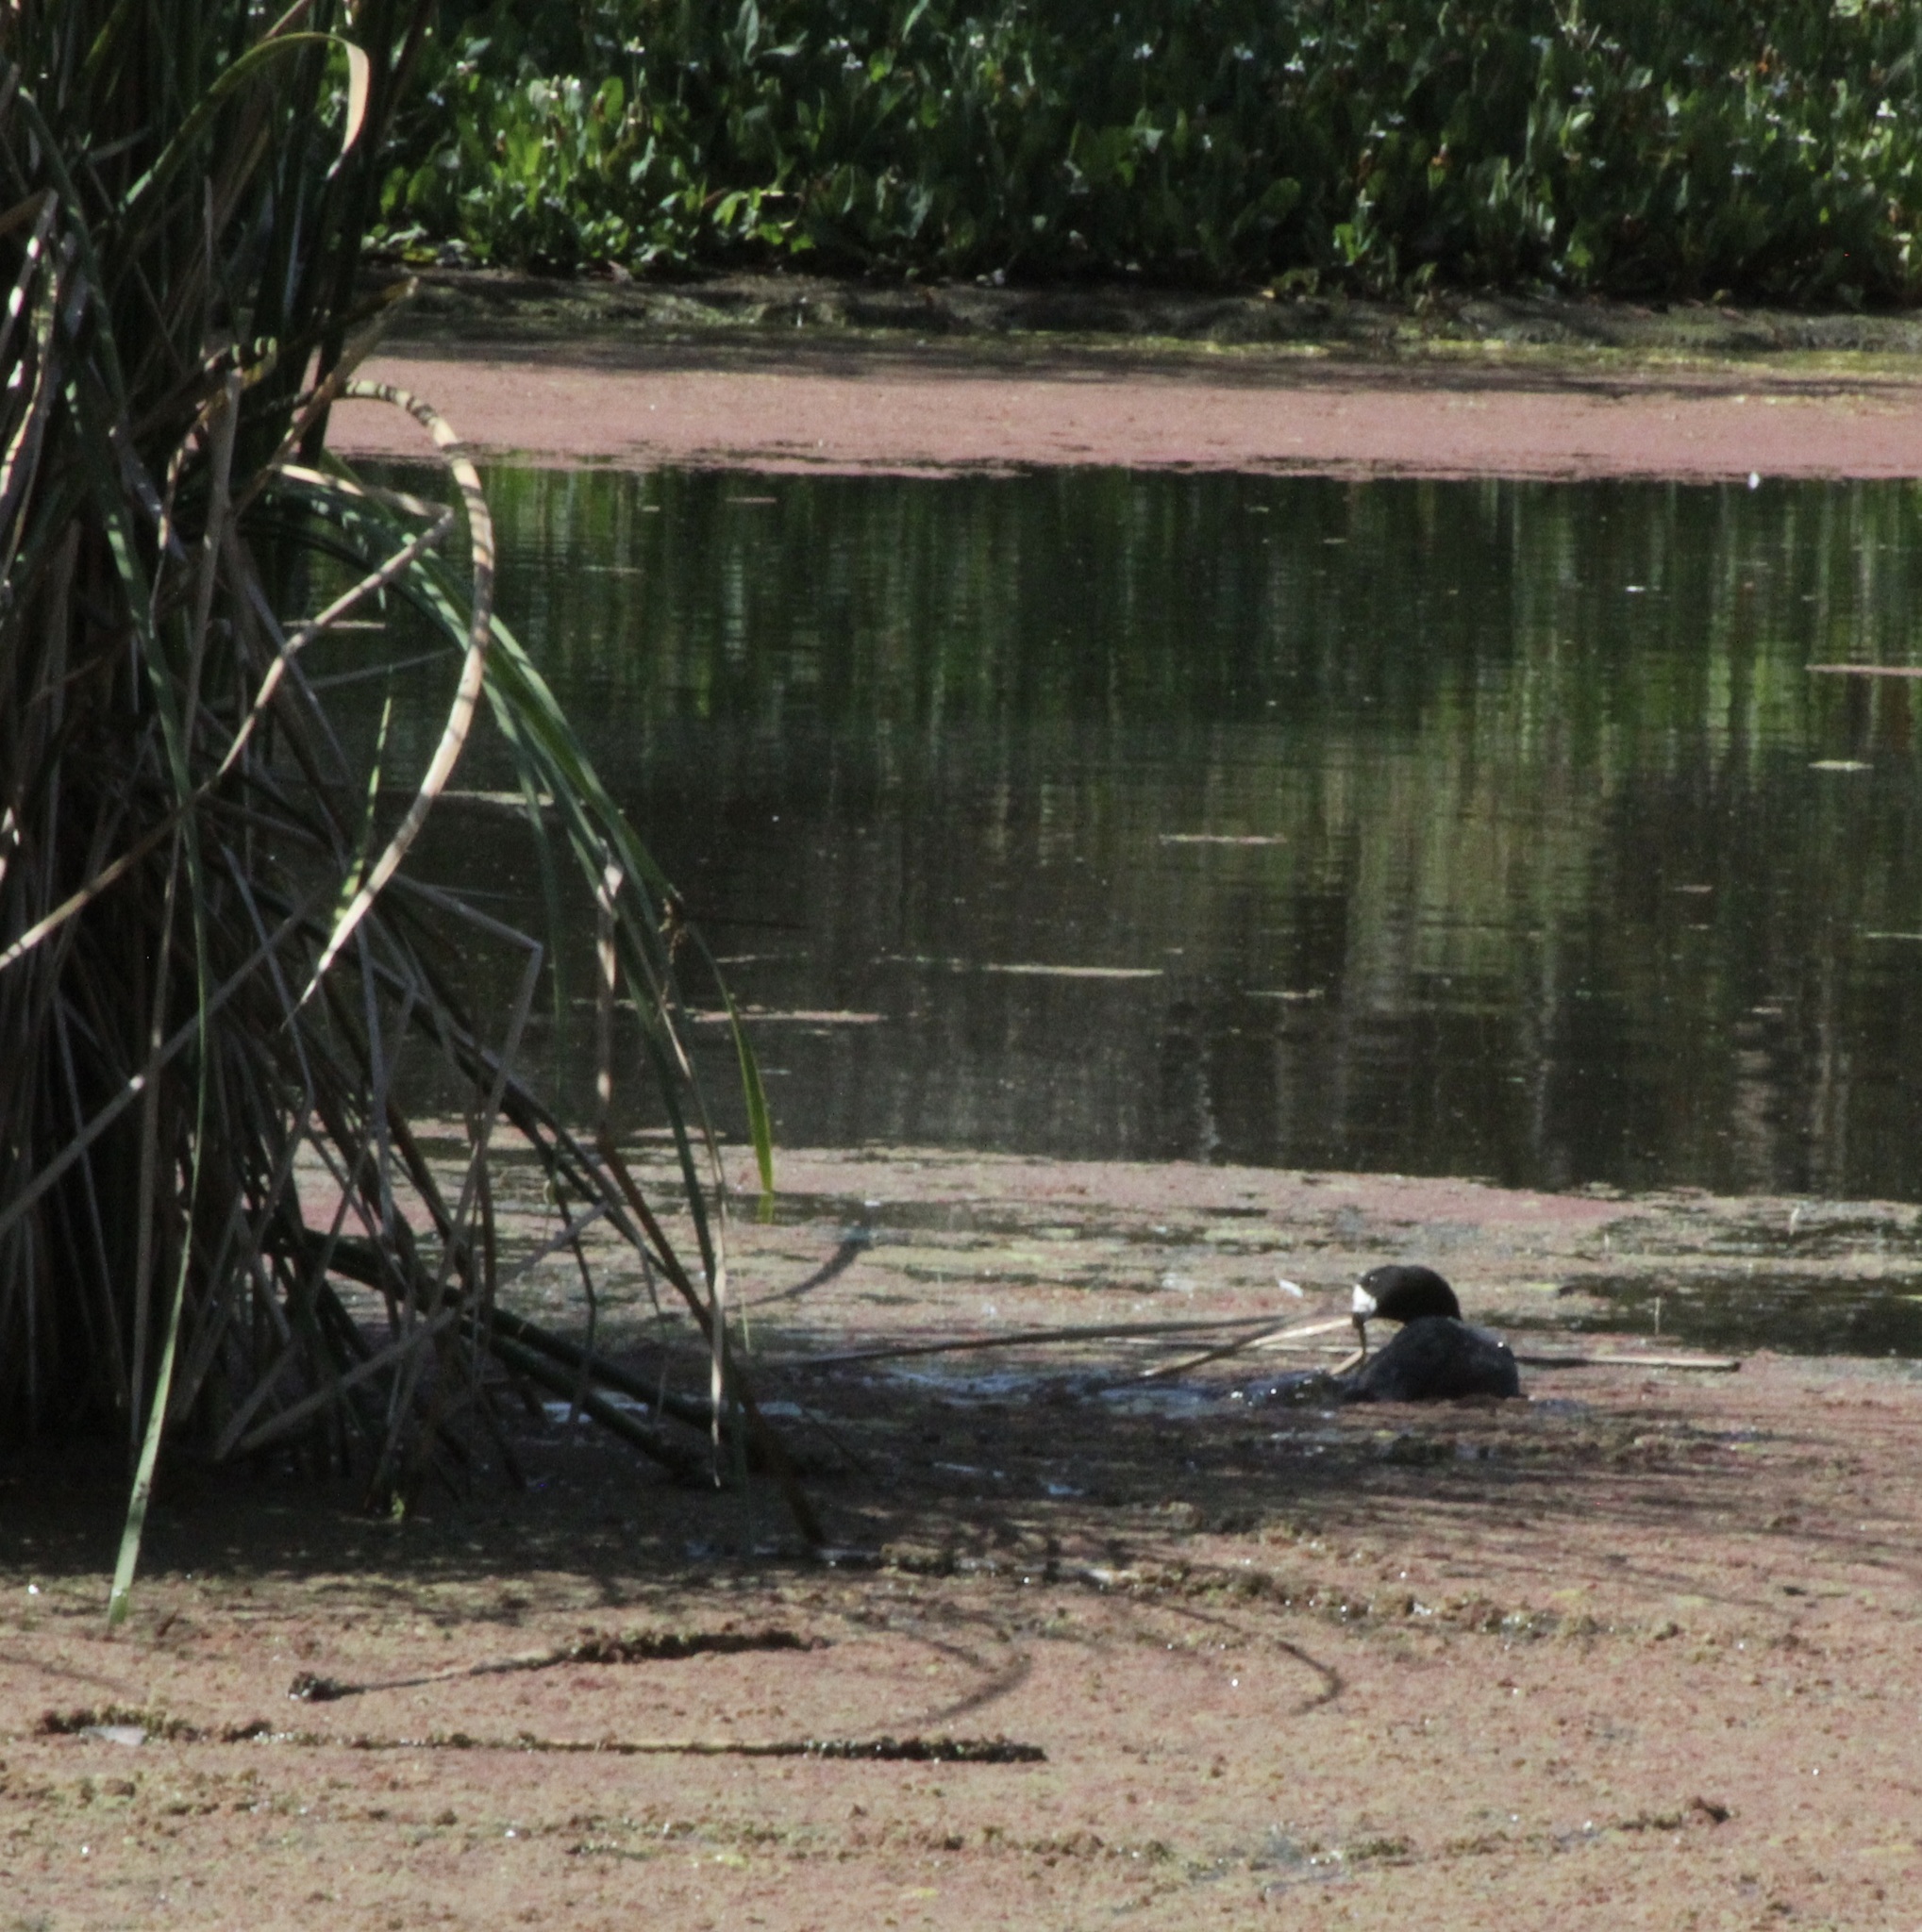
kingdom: Animalia
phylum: Chordata
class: Aves
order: Gruiformes
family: Rallidae
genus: Fulica
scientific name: Fulica americana
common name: American coot
